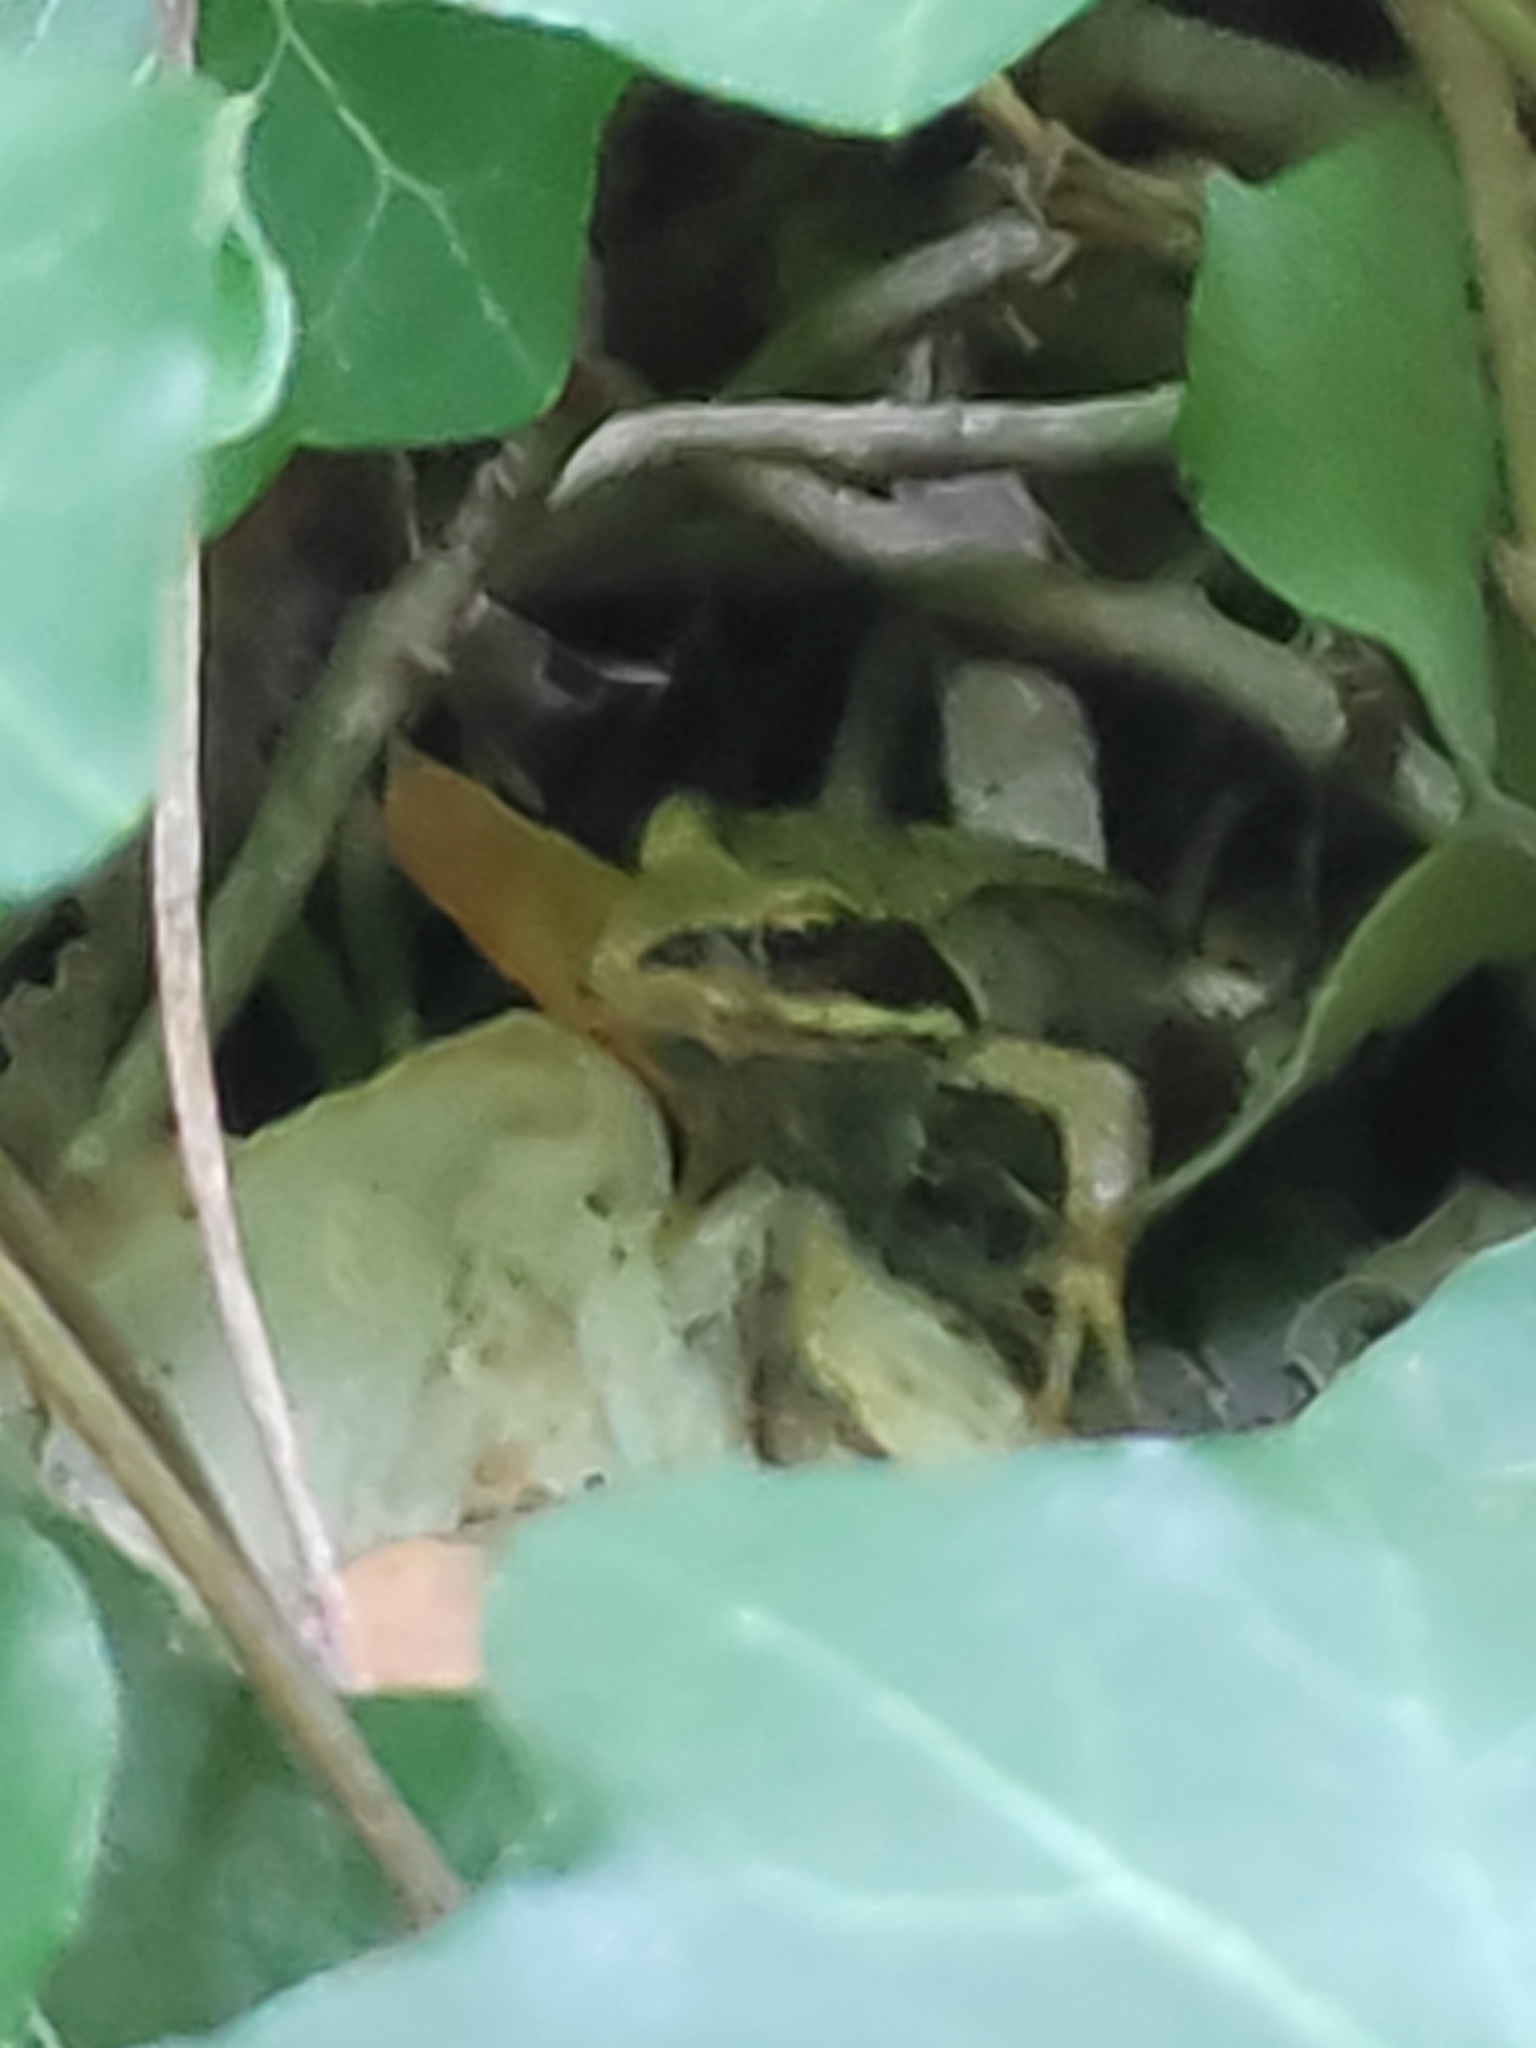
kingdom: Animalia
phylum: Chordata
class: Amphibia
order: Anura
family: Ranidae
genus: Rana
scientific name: Rana temporaria
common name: Common frog
